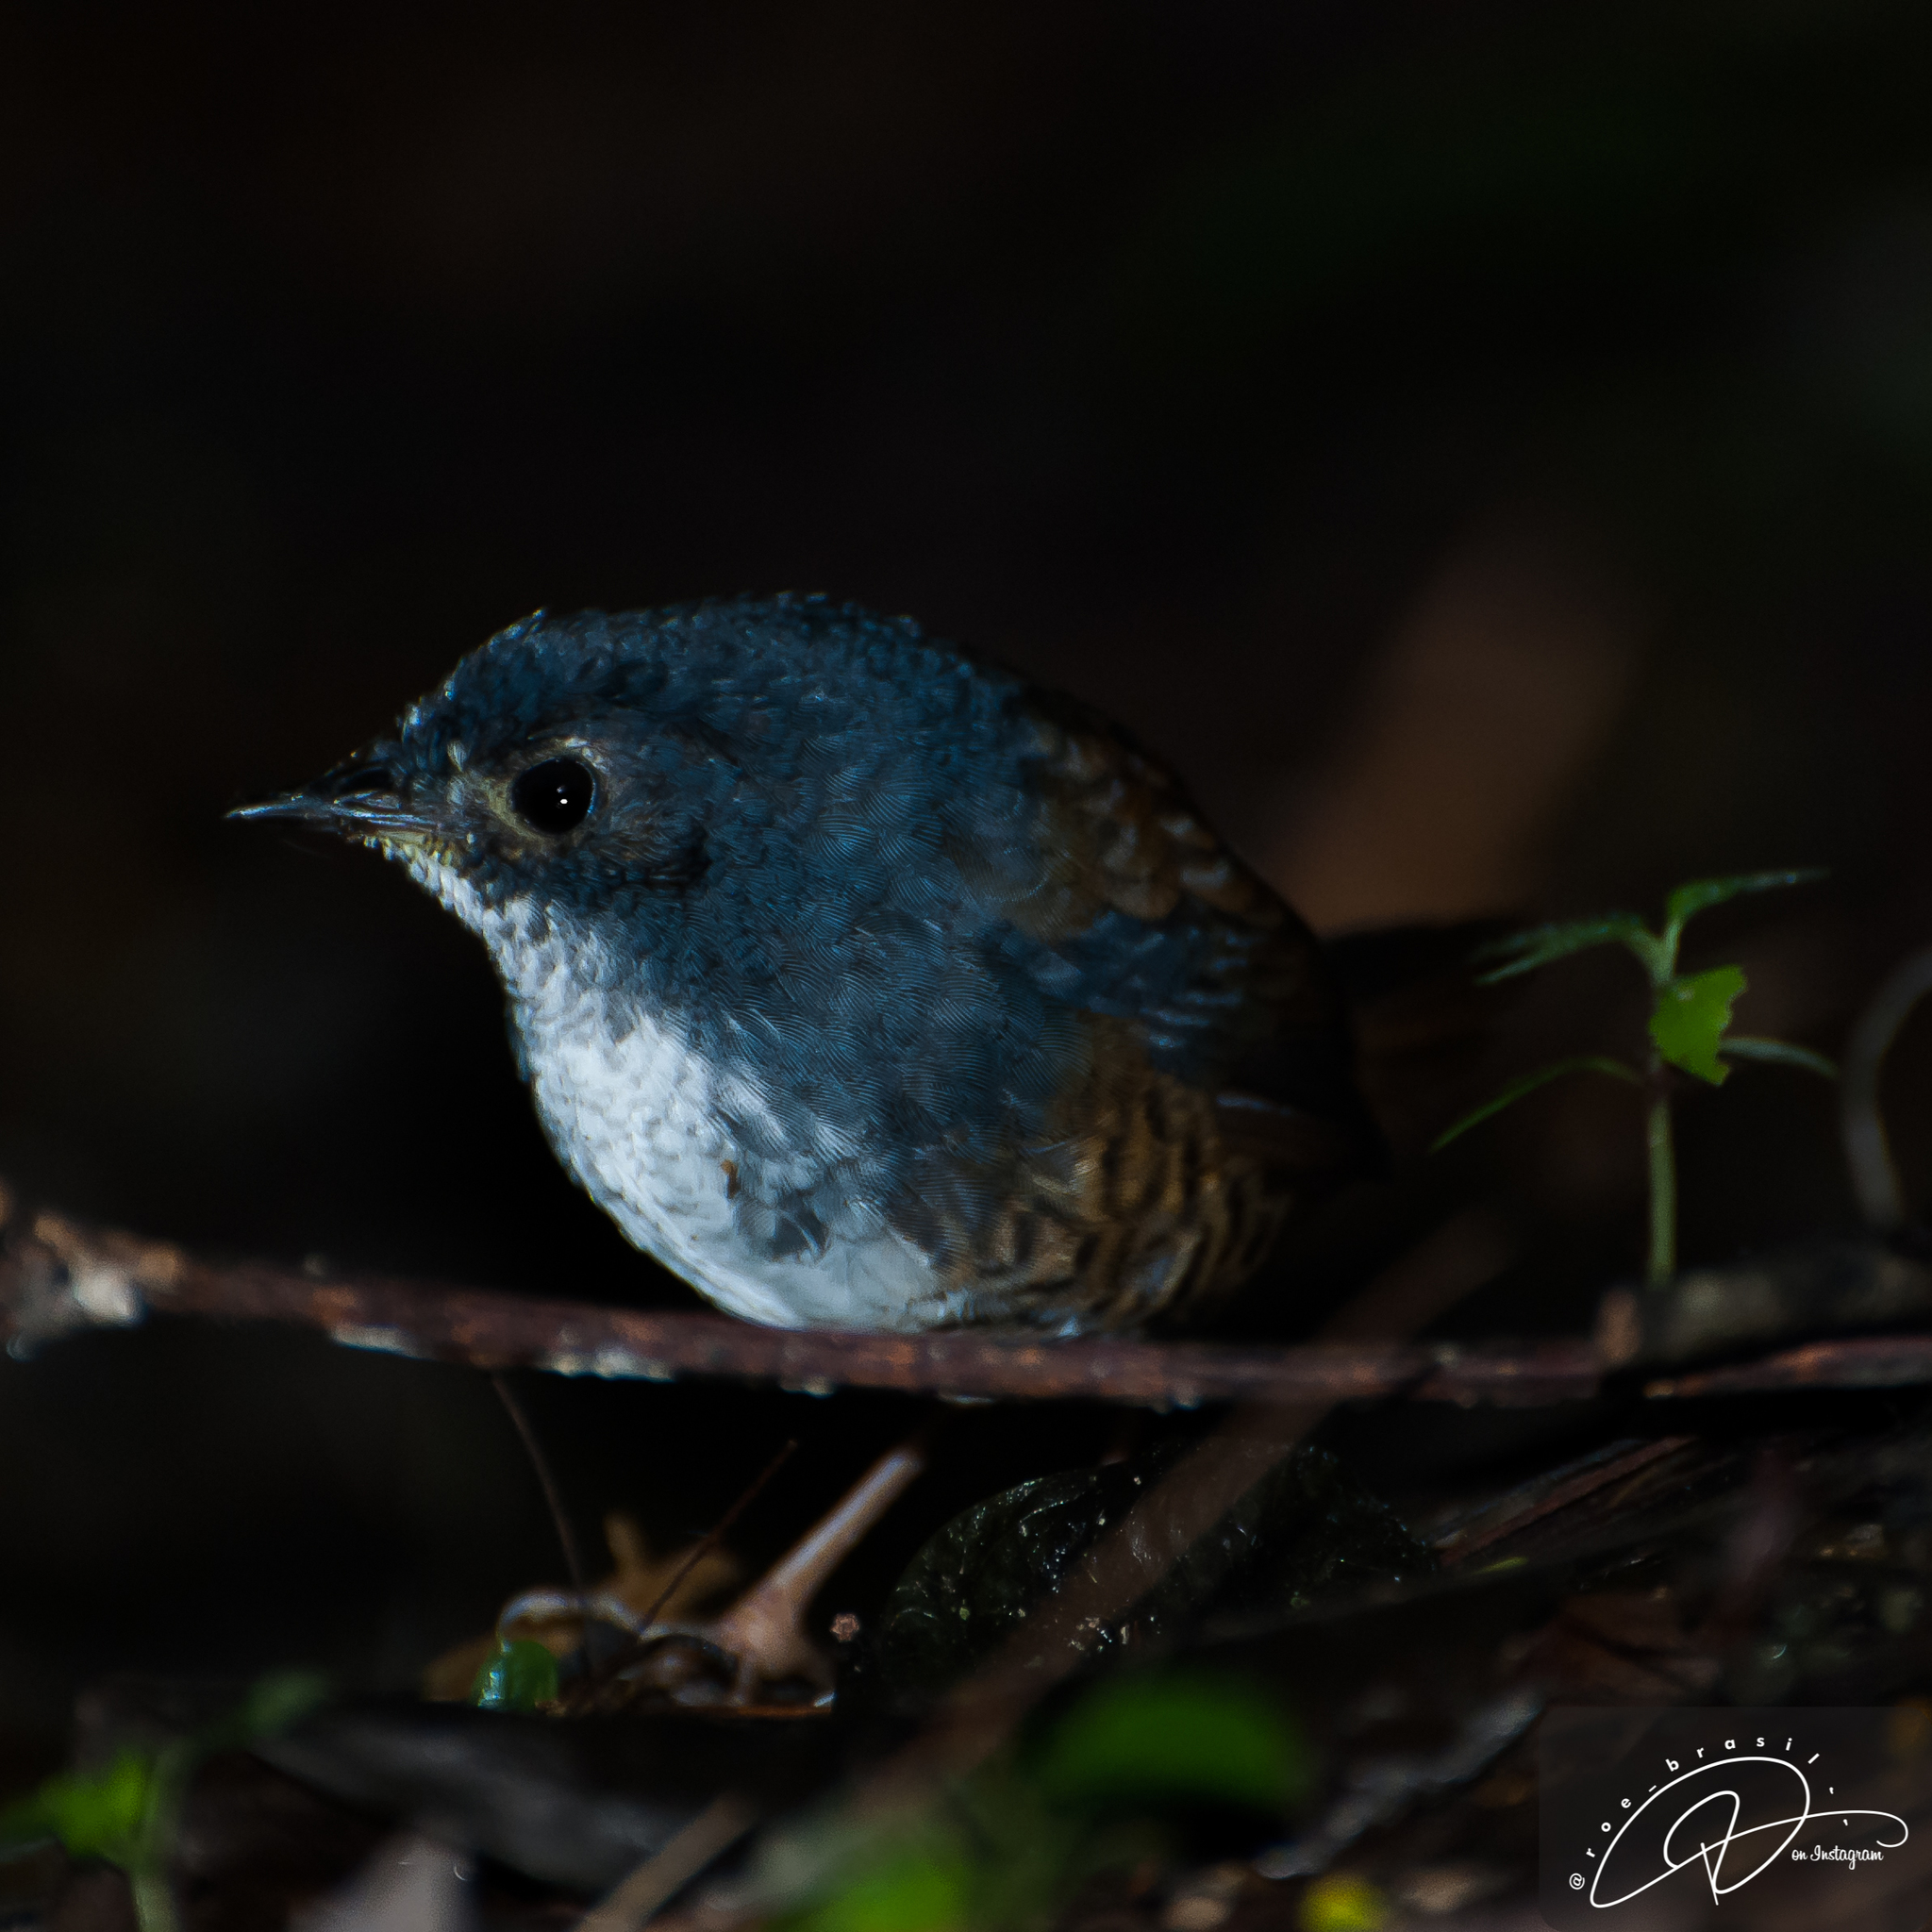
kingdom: Animalia
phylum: Chordata
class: Aves
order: Passeriformes
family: Rhinocryptidae
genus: Eleoscytalopus
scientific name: Eleoscytalopus indigoticus
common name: White-breasted tapaculo
